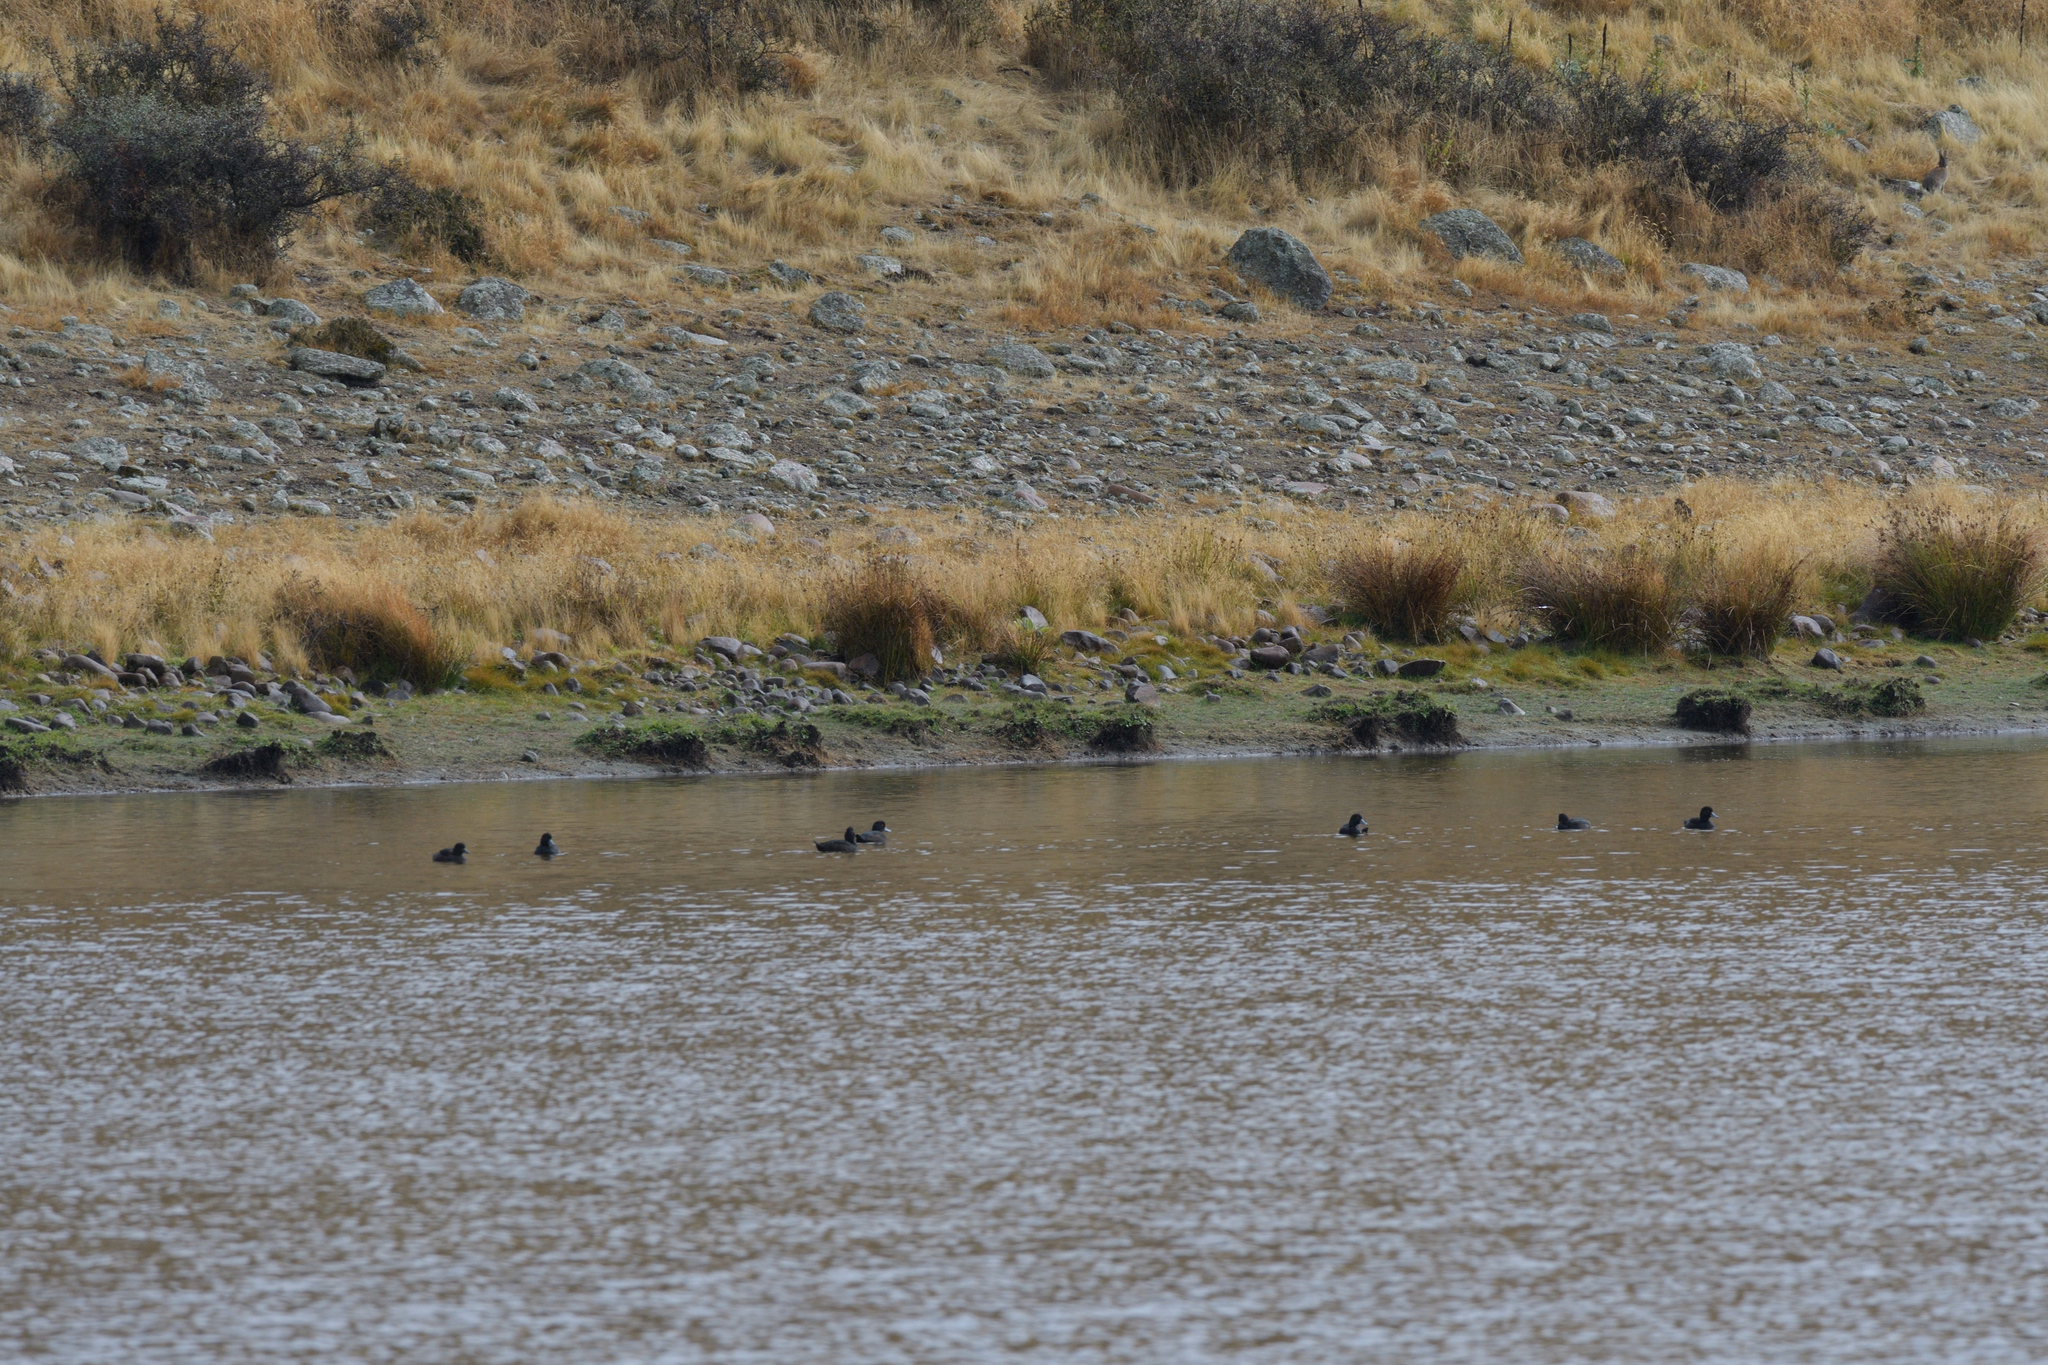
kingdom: Animalia
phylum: Chordata
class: Aves
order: Anseriformes
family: Anatidae
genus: Aythya
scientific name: Aythya novaeseelandiae
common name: New zealand scaup
